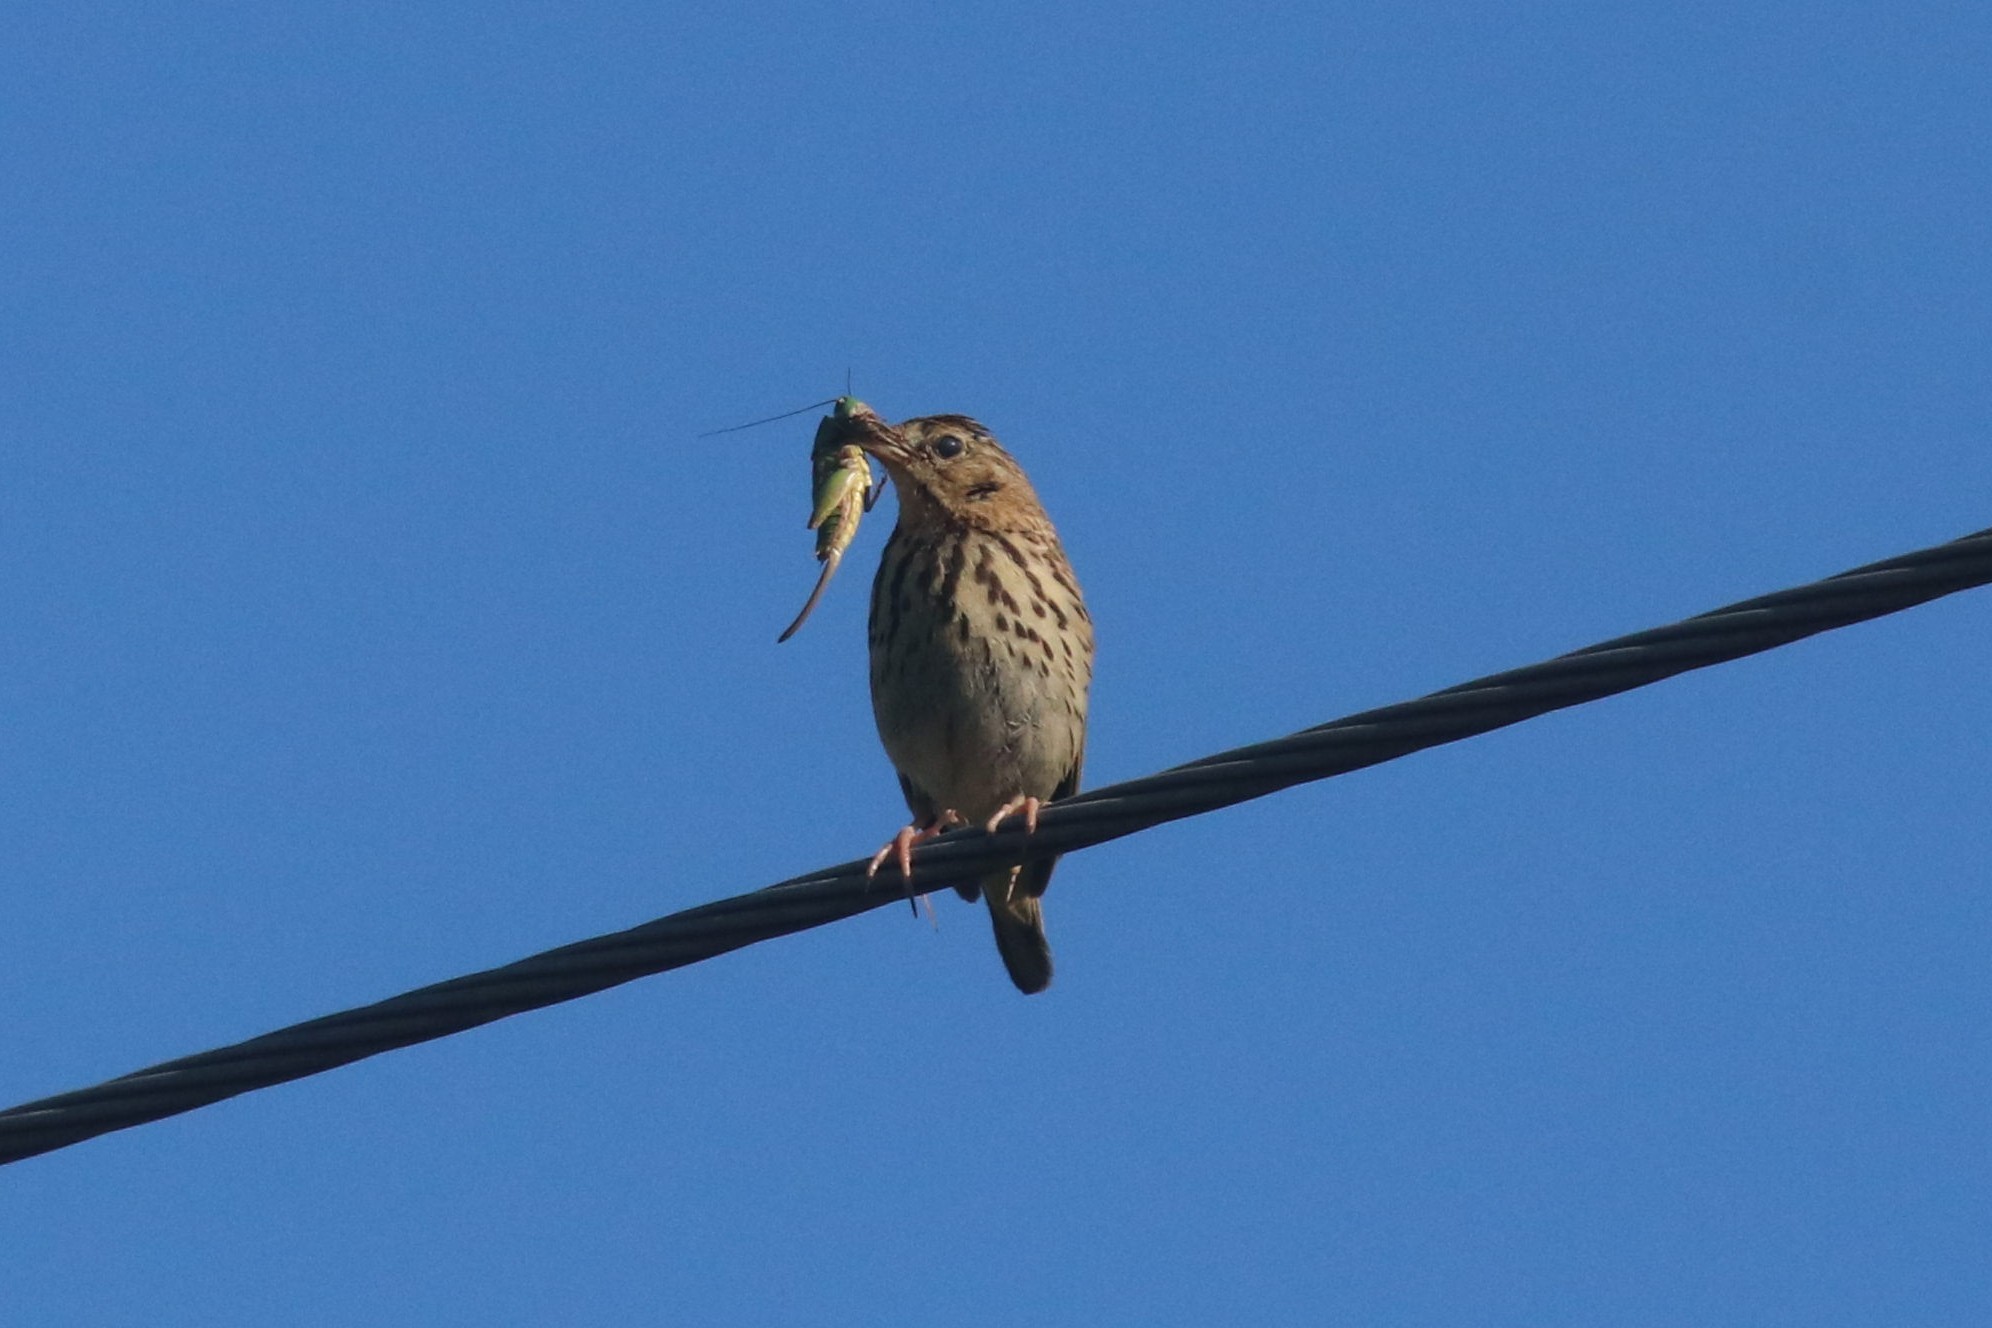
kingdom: Animalia
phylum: Chordata
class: Aves
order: Passeriformes
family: Motacillidae
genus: Anthus
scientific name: Anthus trivialis
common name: Tree pipit
